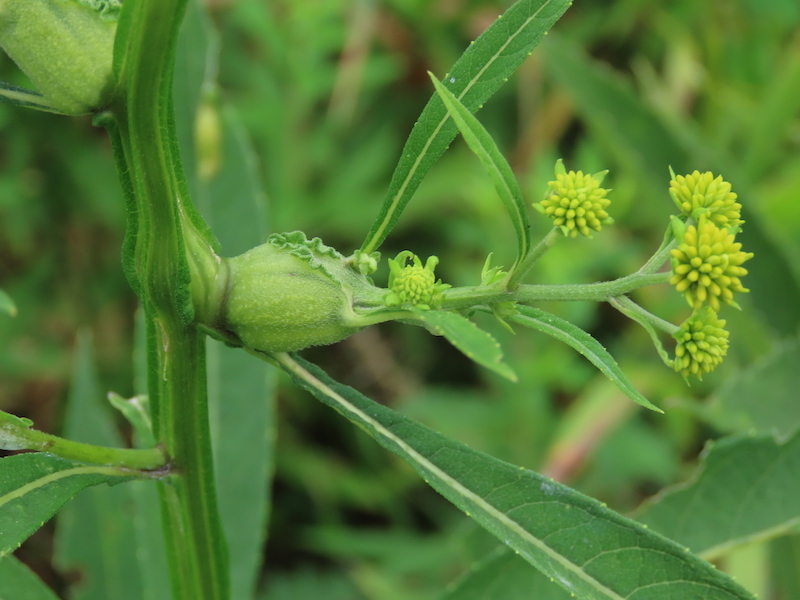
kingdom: Animalia
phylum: Arthropoda
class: Insecta
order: Diptera
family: Cecidomyiidae
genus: Neolasioptera
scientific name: Neolasioptera verbesinae
